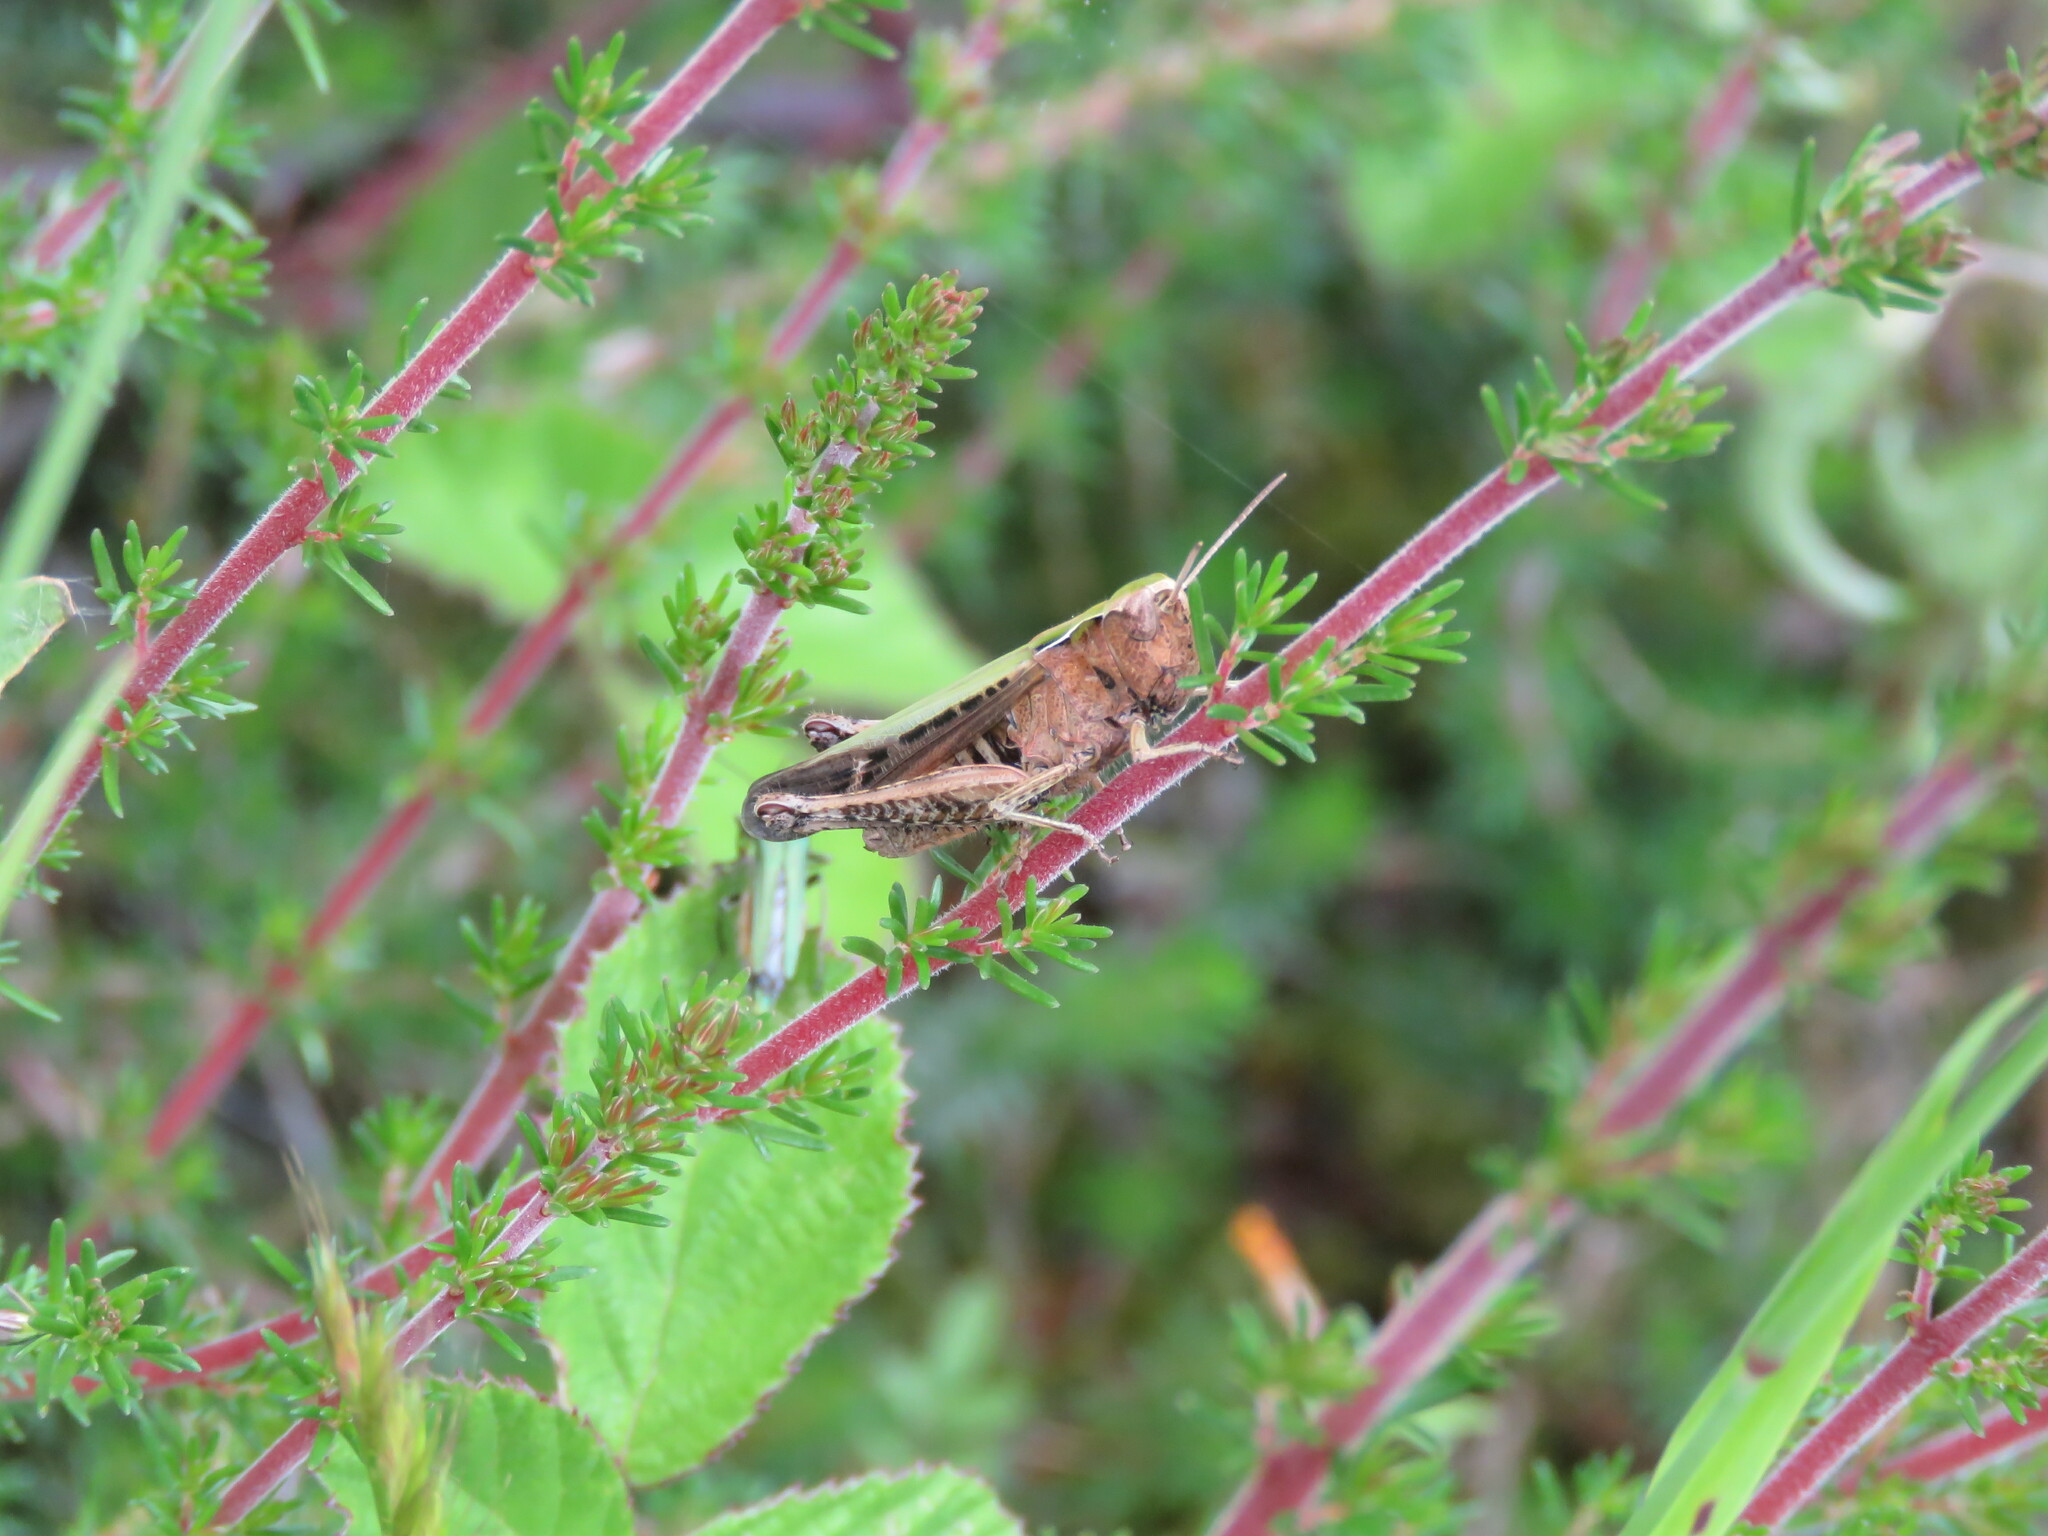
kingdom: Animalia
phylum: Arthropoda
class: Insecta
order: Orthoptera
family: Acrididae
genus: Omocestus
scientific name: Omocestus rufipes
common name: Woodland grasshopper
